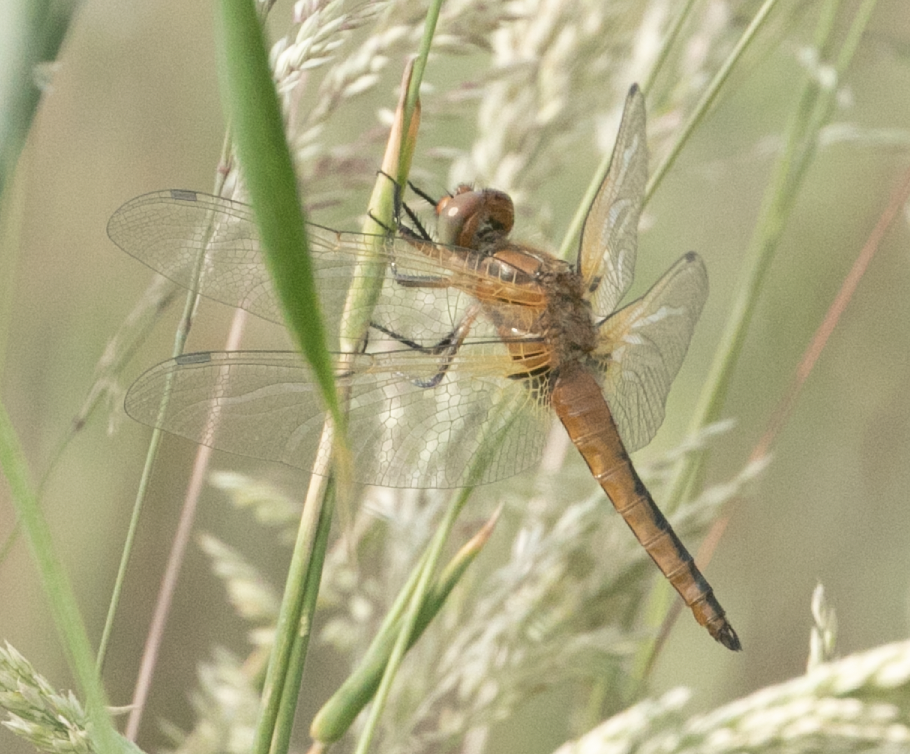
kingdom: Animalia
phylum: Arthropoda
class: Insecta
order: Odonata
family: Libellulidae
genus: Libellula
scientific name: Libellula fulva
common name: Blue chaser
